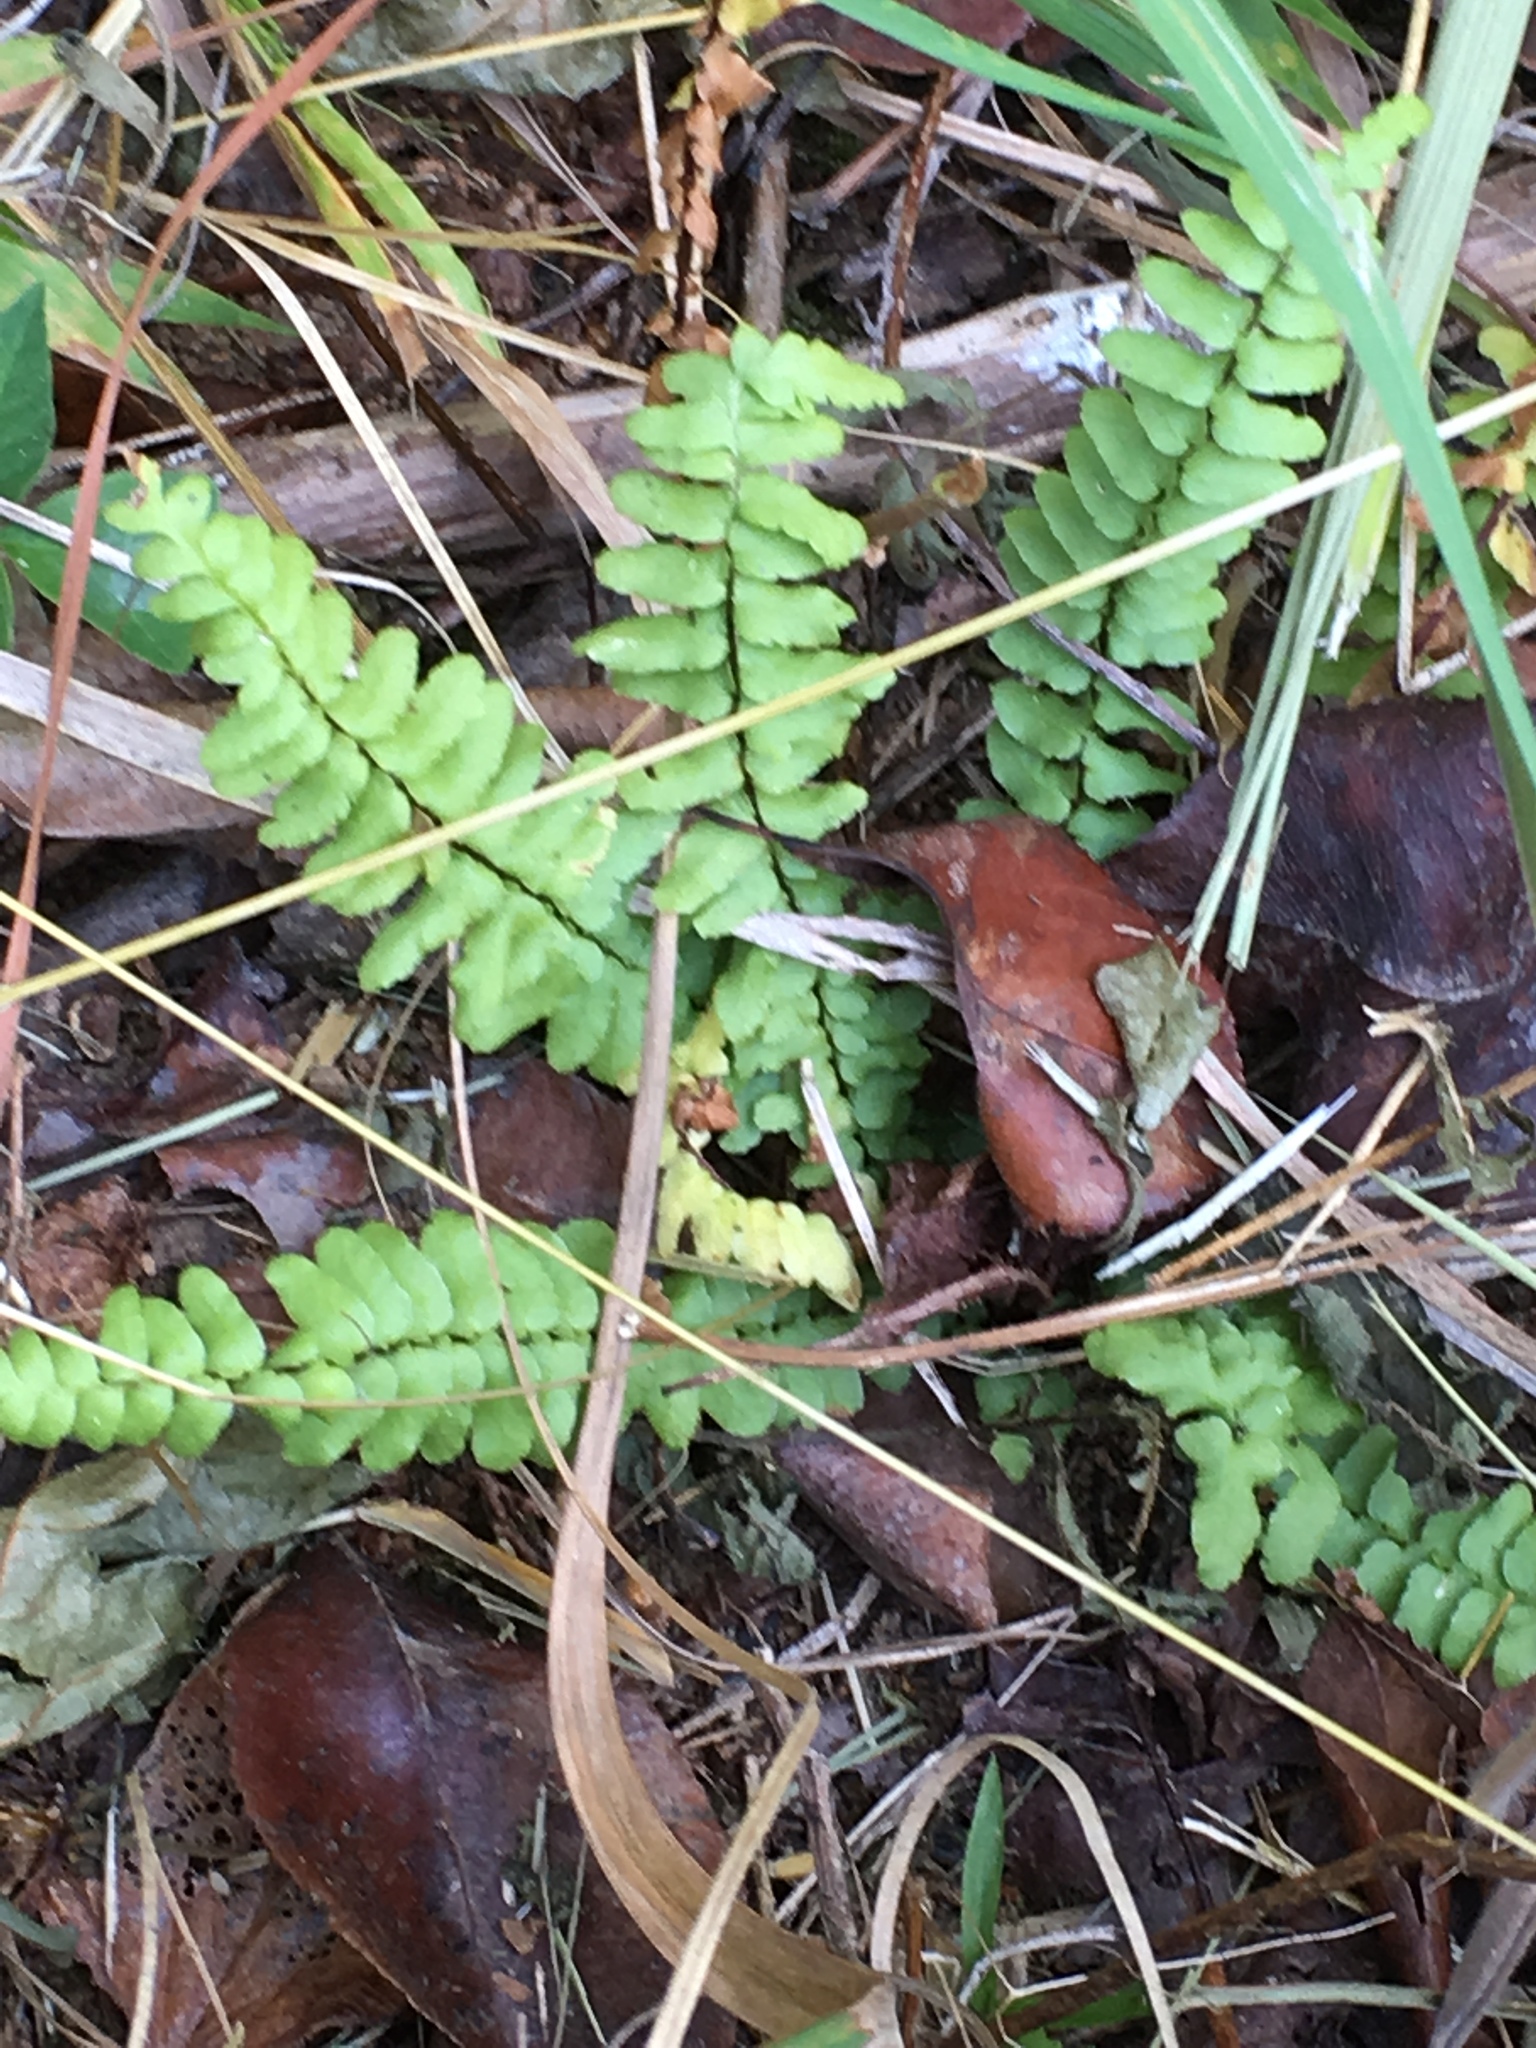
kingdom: Plantae
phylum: Tracheophyta
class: Polypodiopsida
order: Polypodiales
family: Aspleniaceae
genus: Asplenium
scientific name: Asplenium platyneuron
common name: Ebony spleenwort
